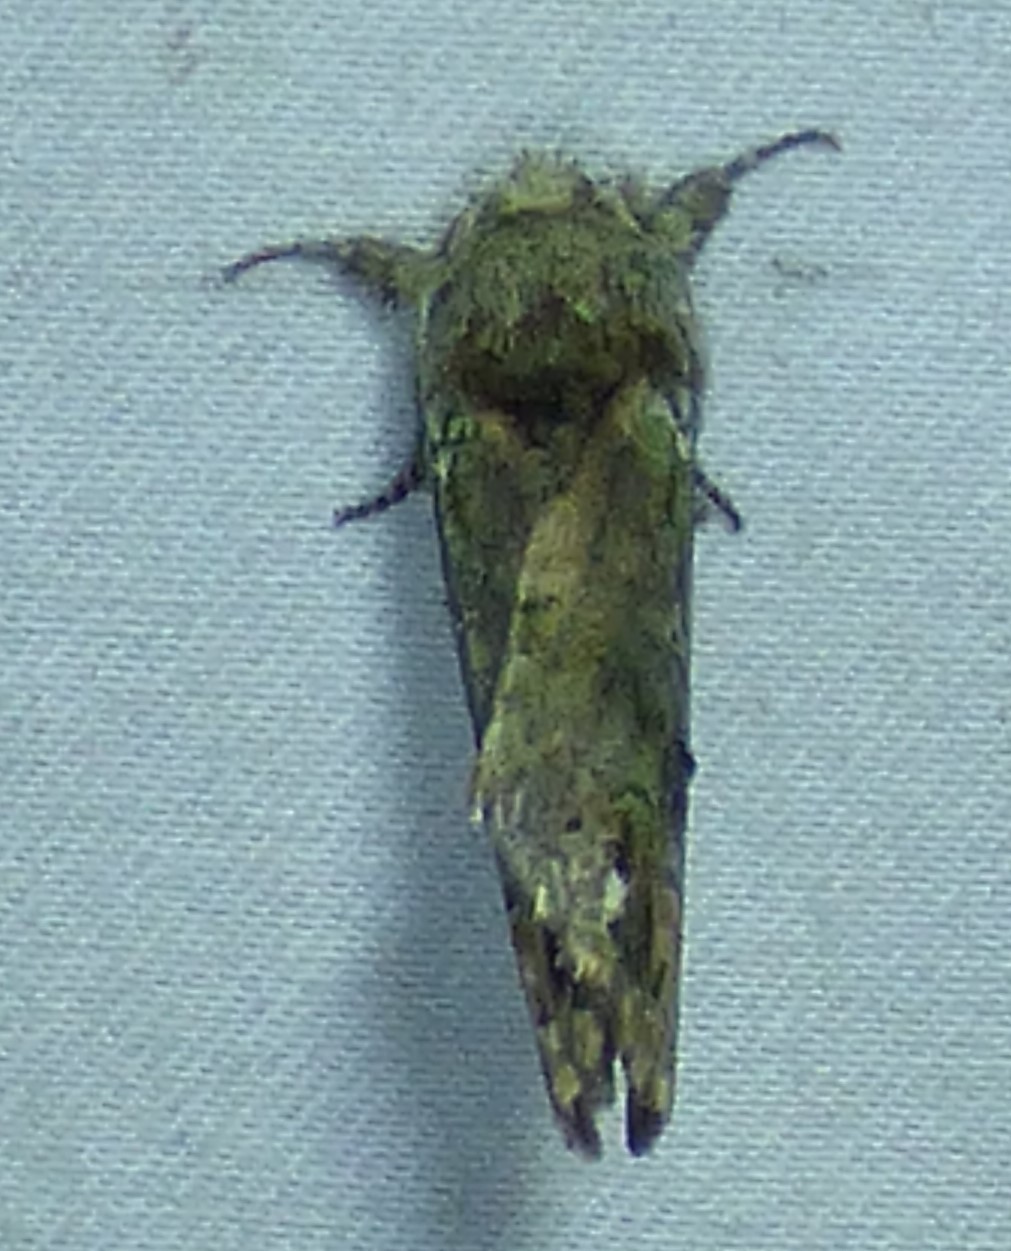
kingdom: Animalia
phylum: Arthropoda
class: Insecta
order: Lepidoptera
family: Notodontidae
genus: Schizura
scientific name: Schizura
